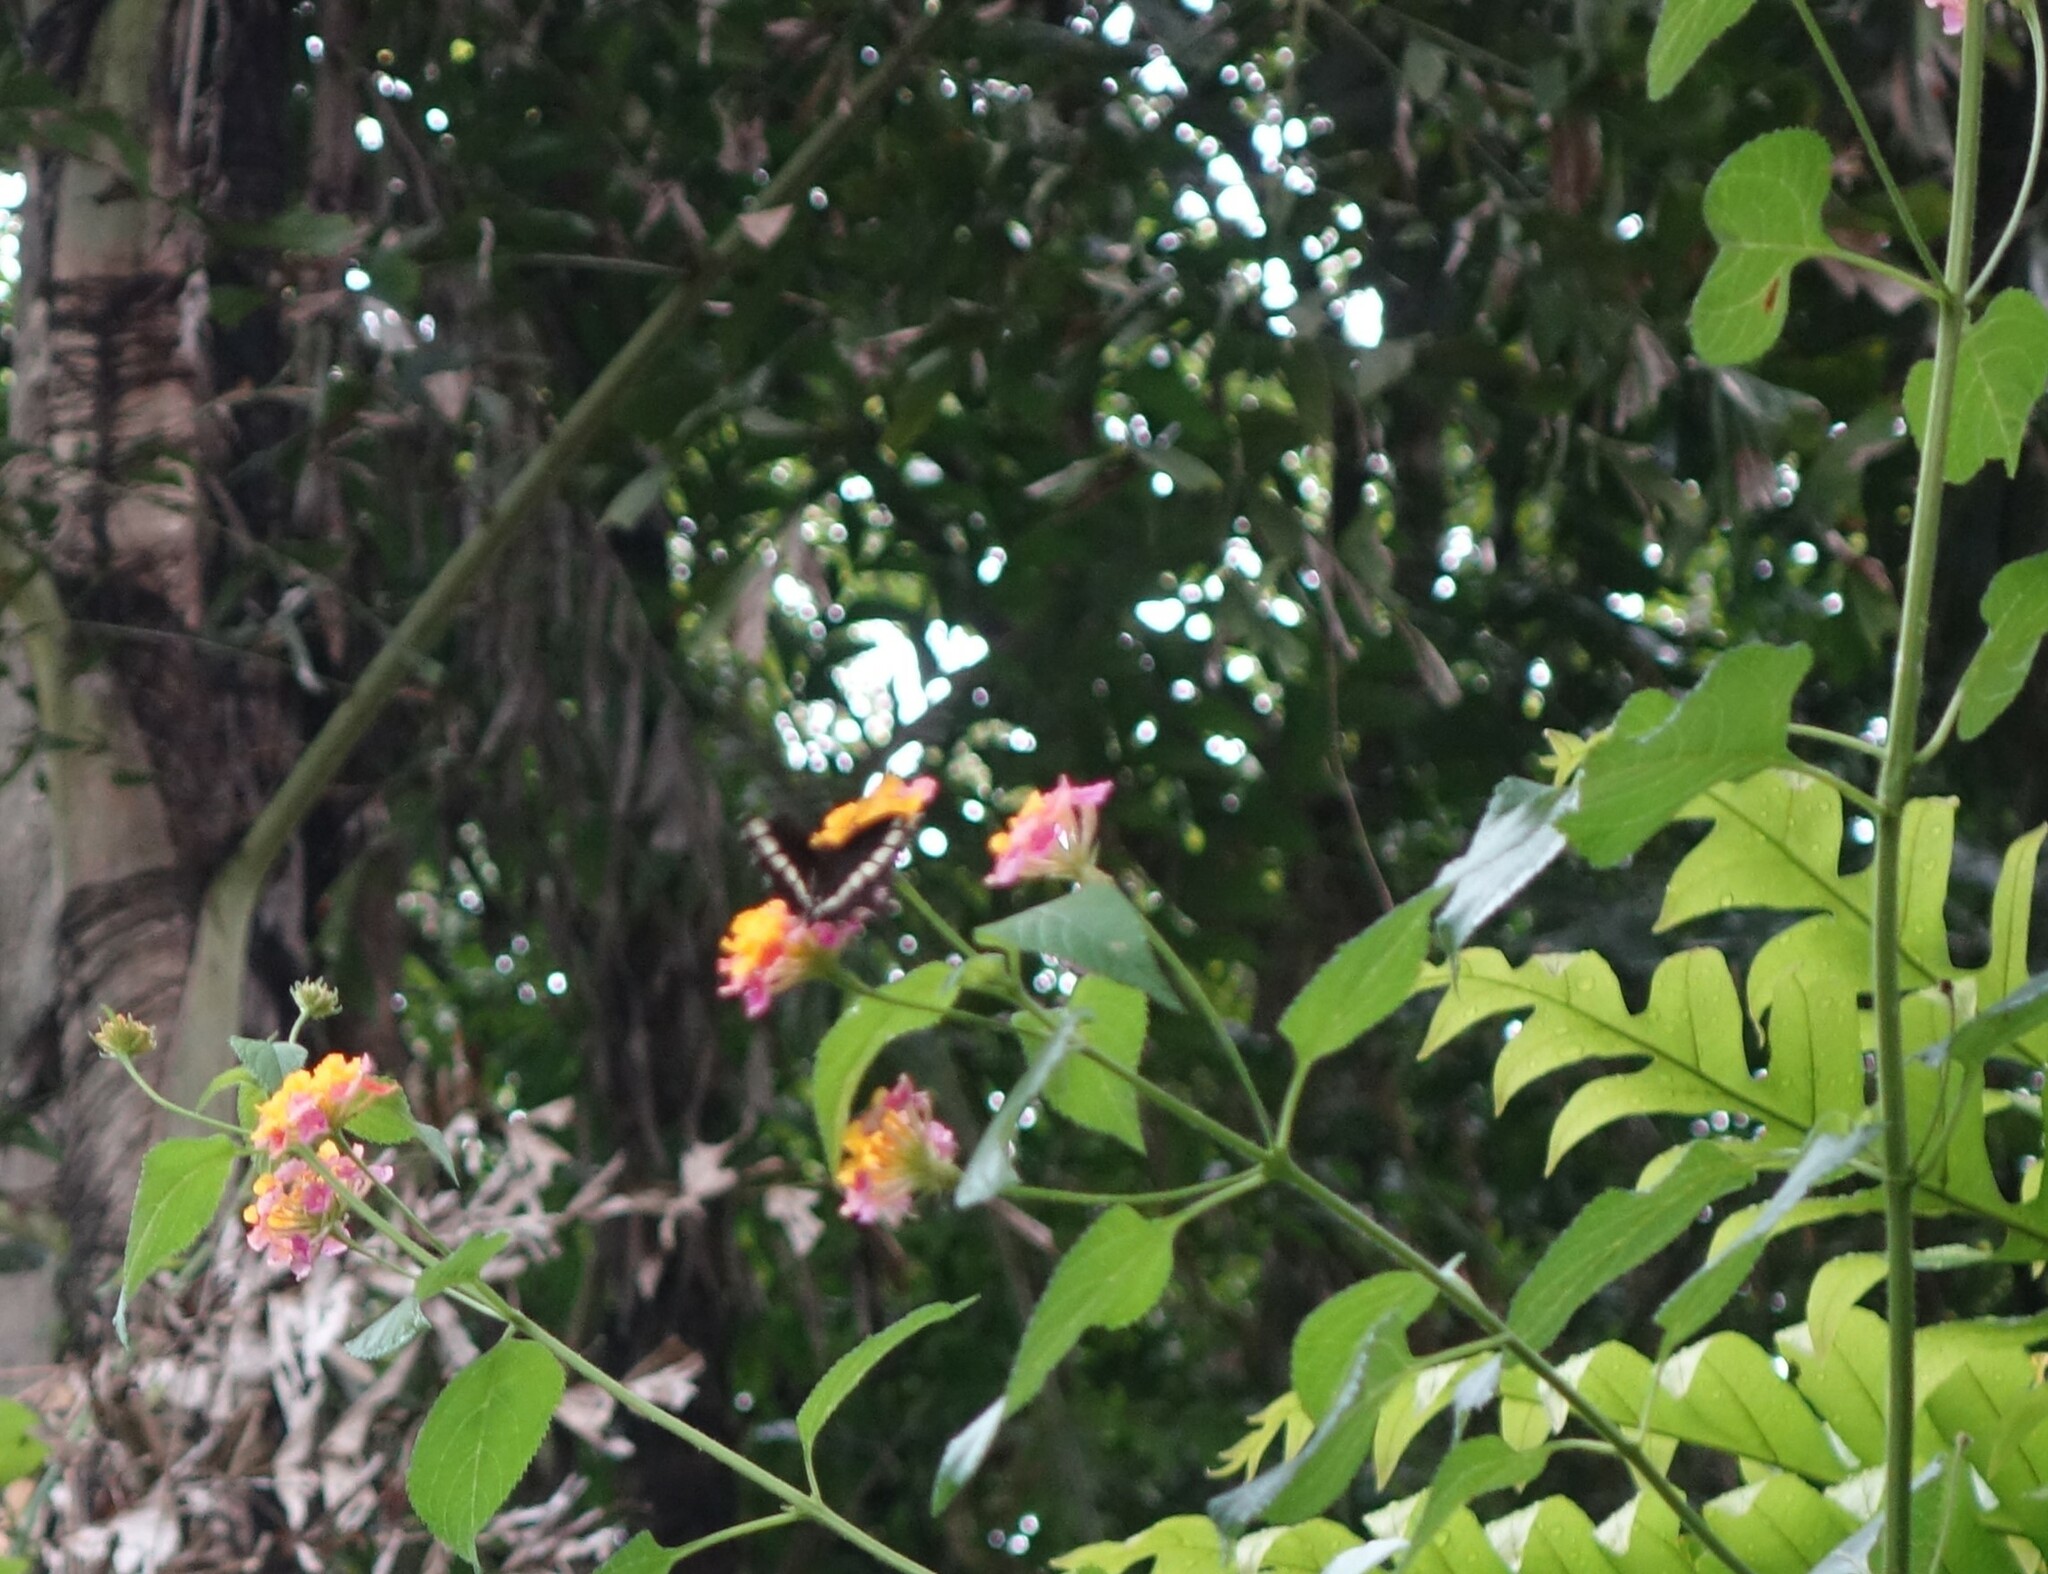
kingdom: Animalia
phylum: Arthropoda
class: Insecta
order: Lepidoptera
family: Papilionidae
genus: Papilio
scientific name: Papilio polytes
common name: Common mormon
